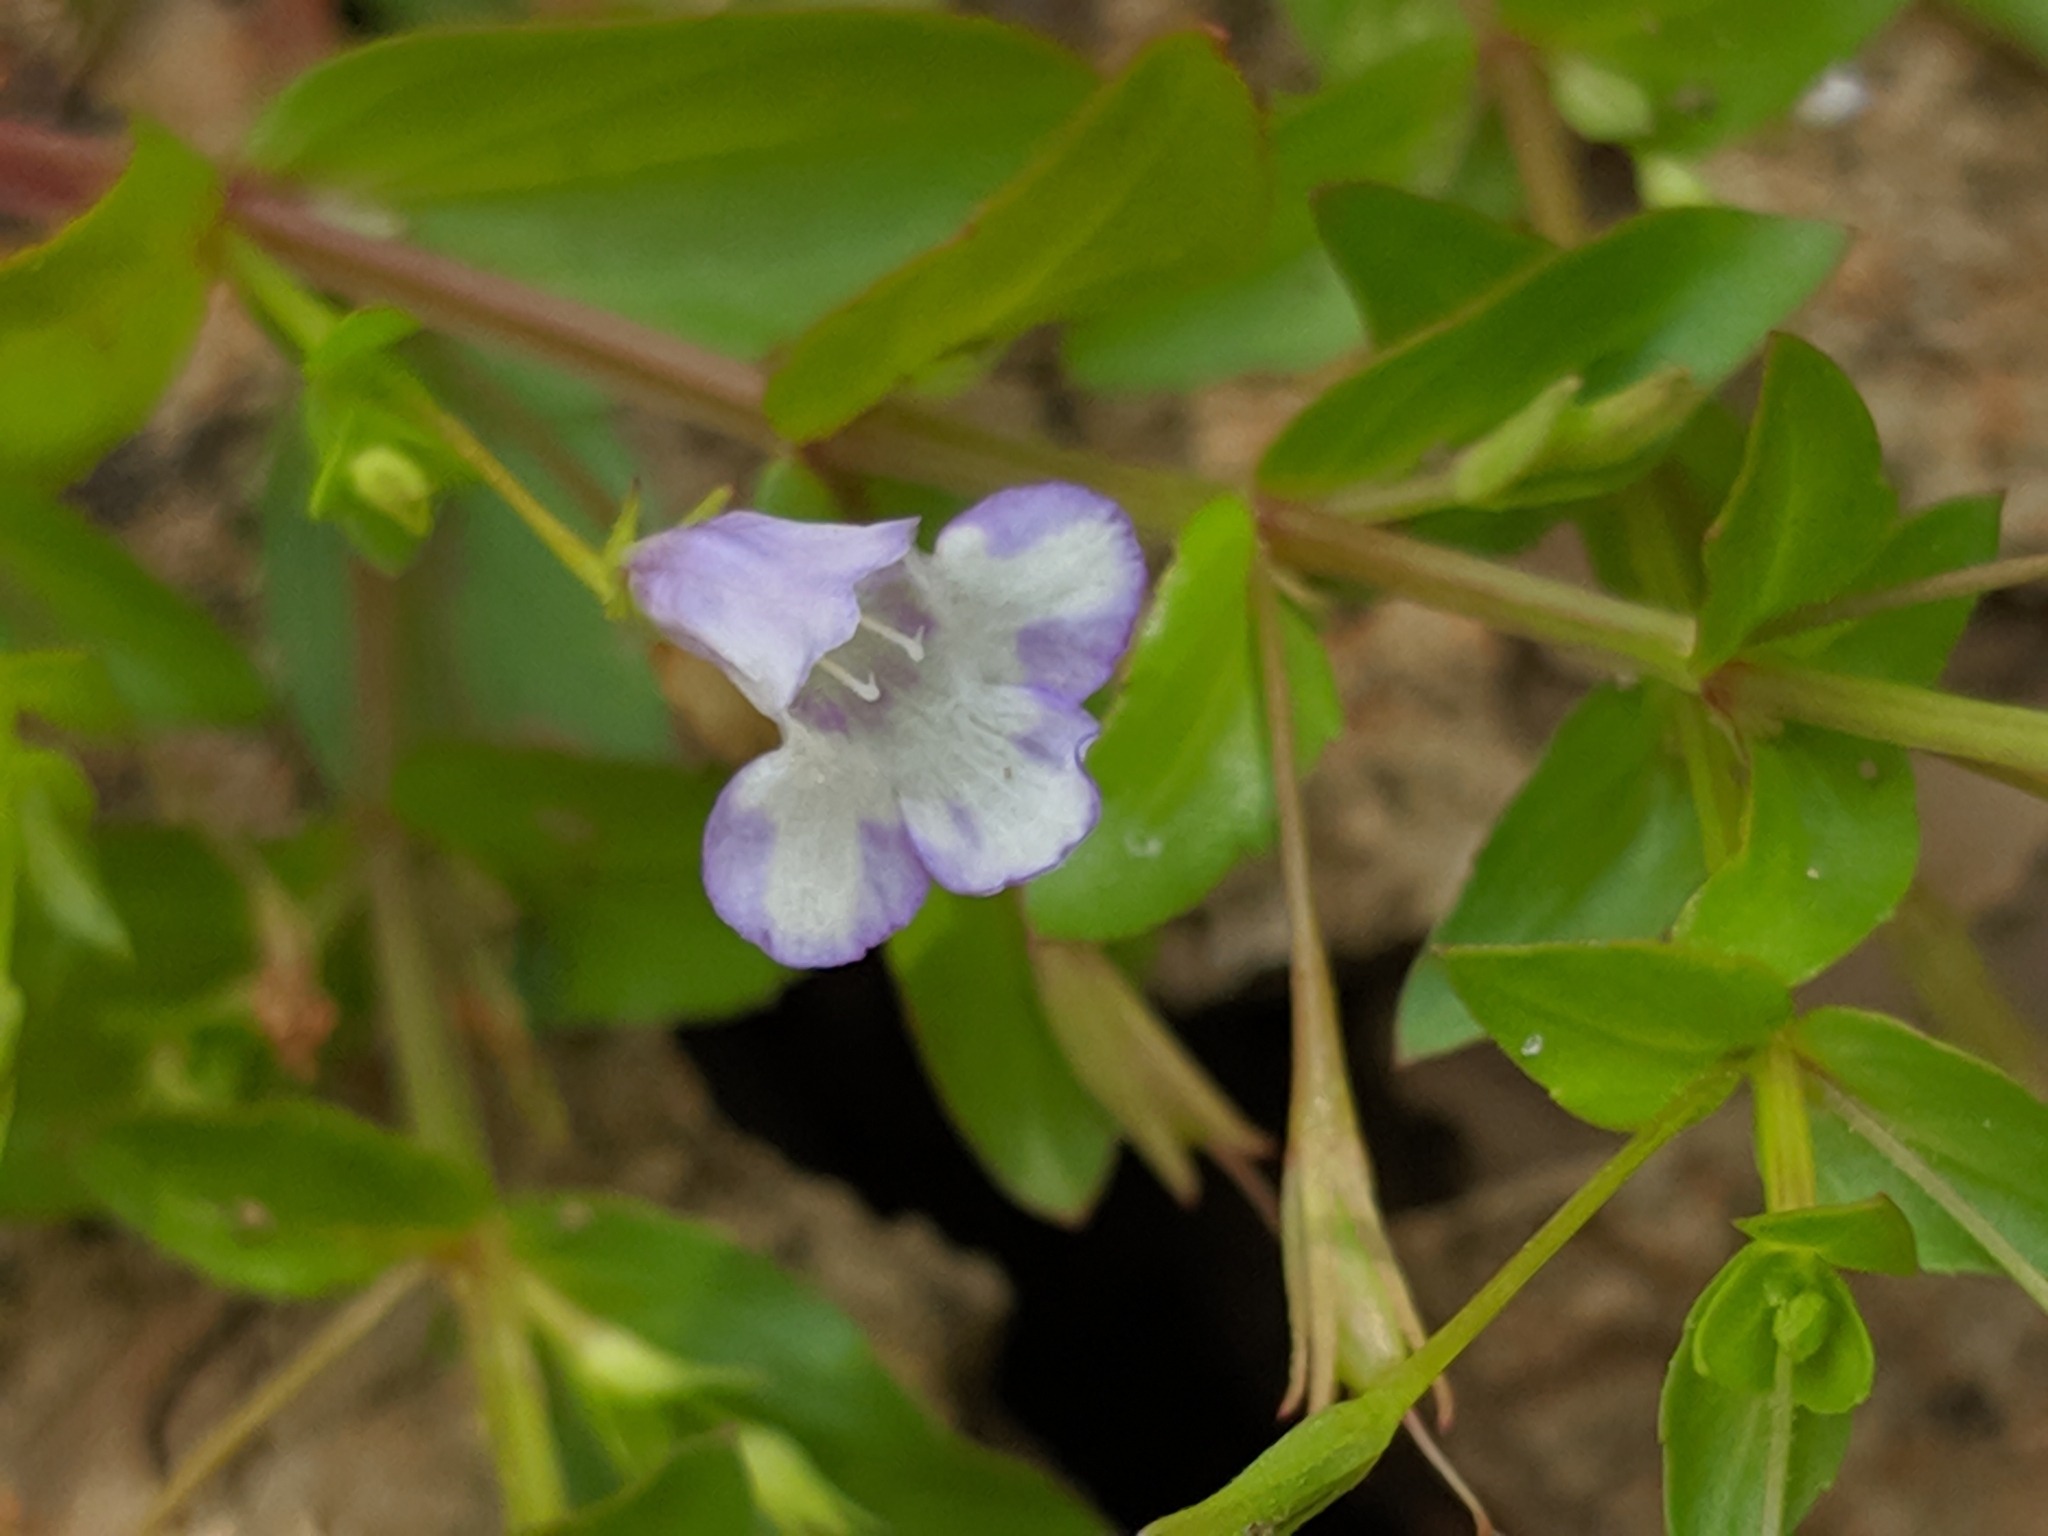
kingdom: Plantae
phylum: Tracheophyta
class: Magnoliopsida
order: Lamiales
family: Linderniaceae
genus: Lindernia
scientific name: Lindernia dubia
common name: Annual false pimpernel
